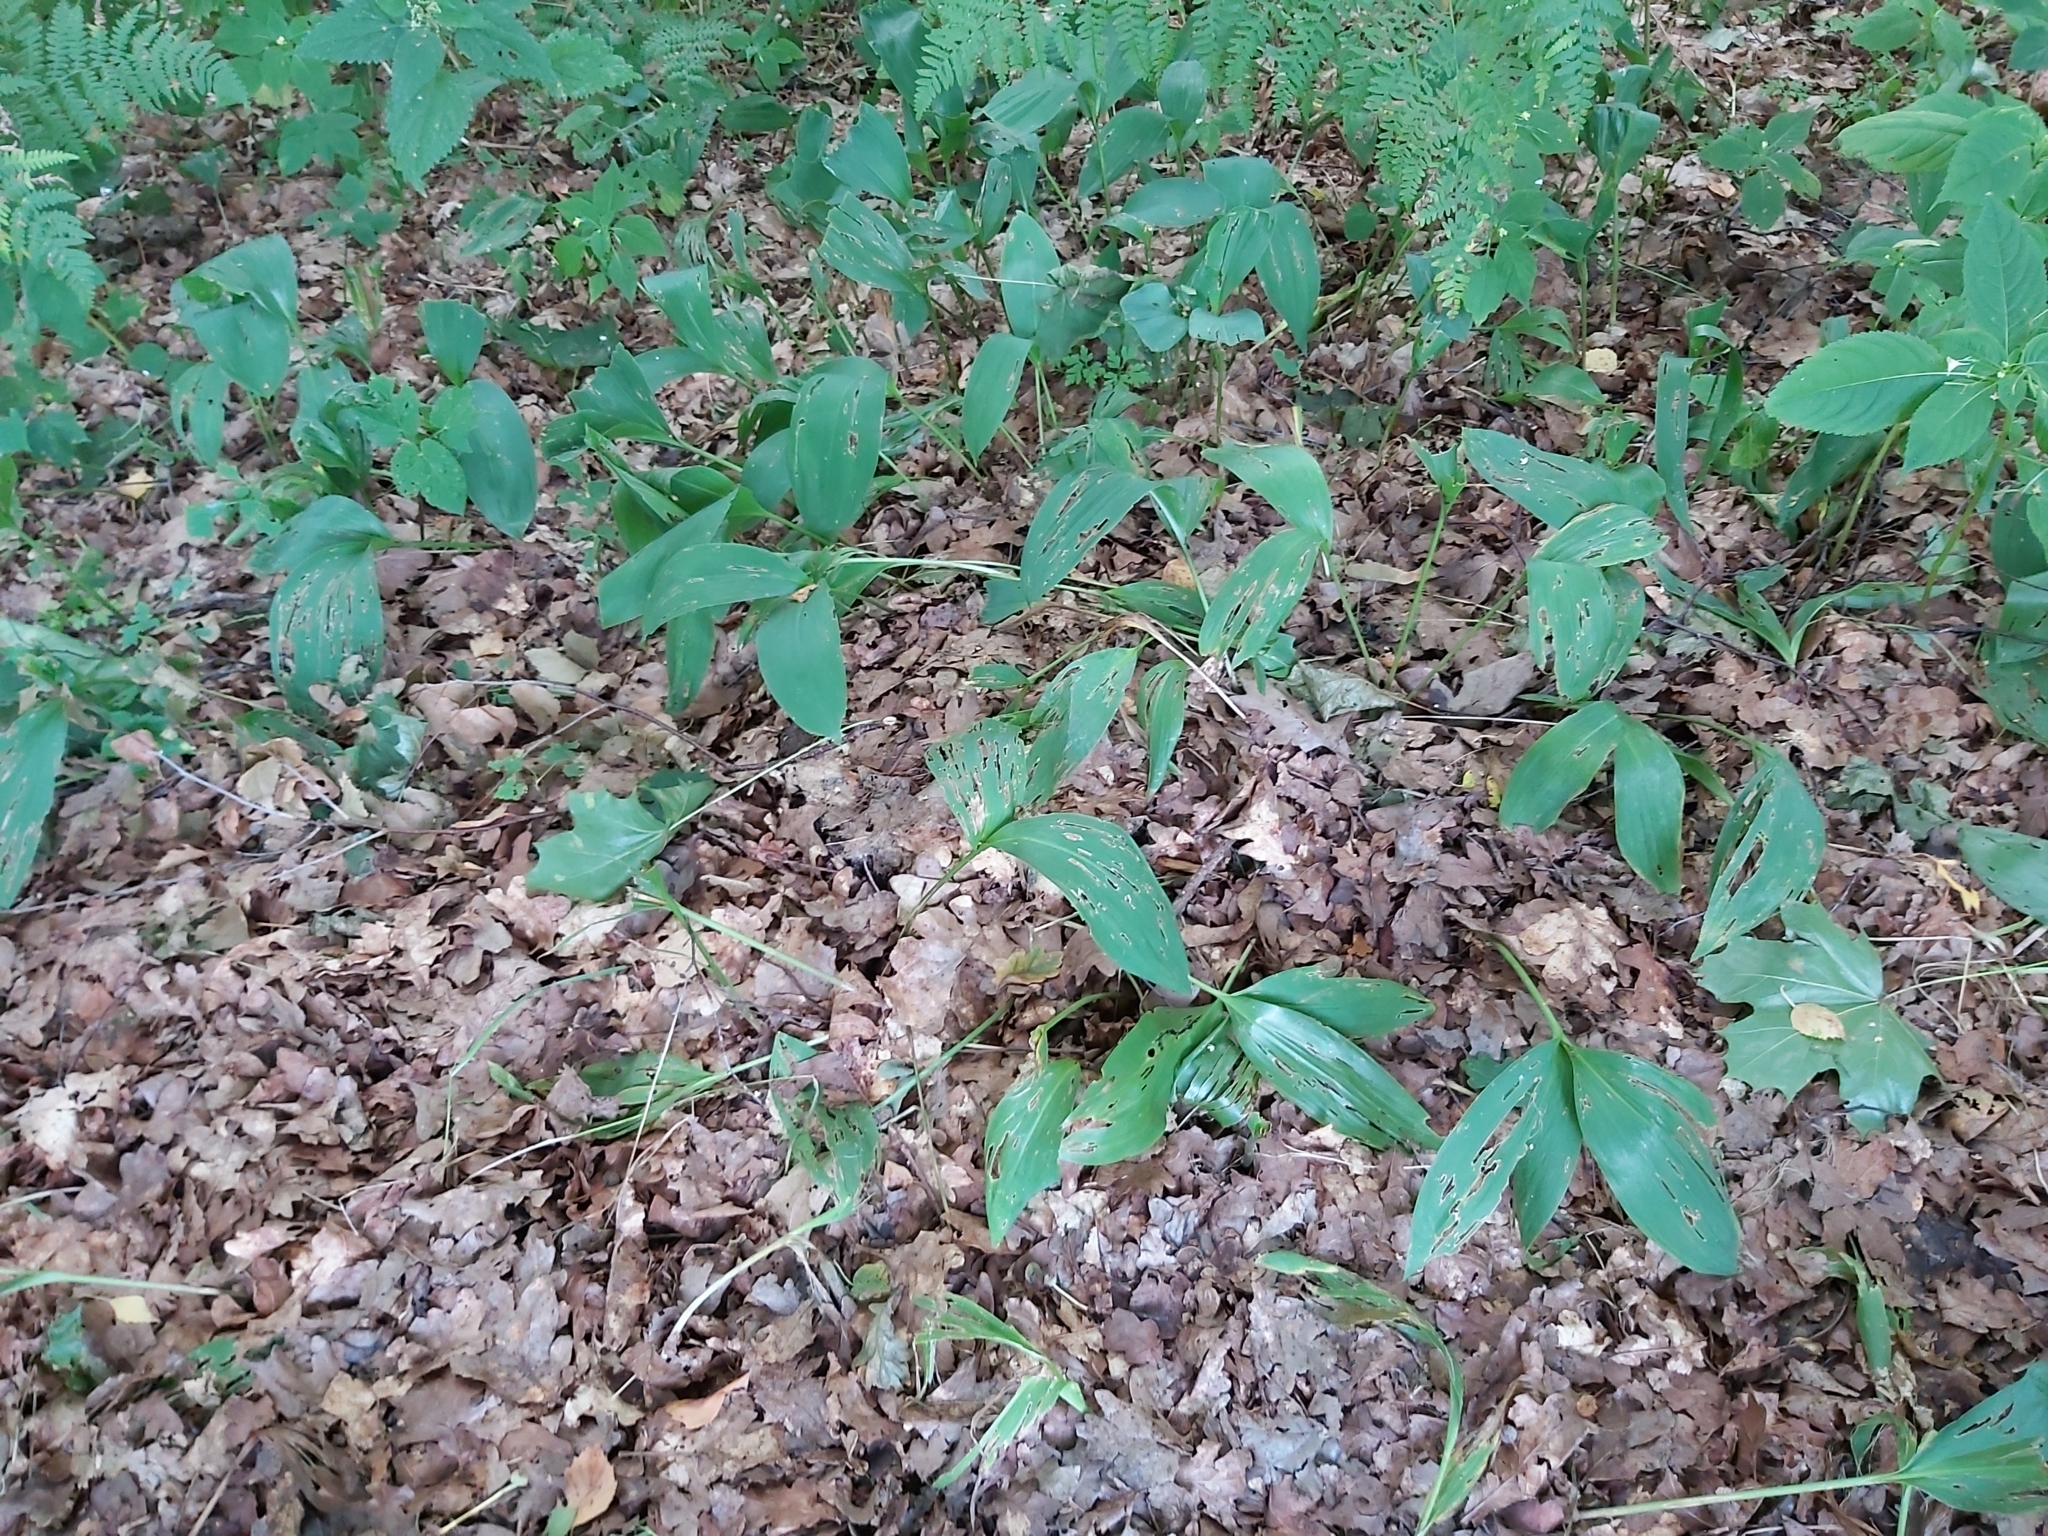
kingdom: Plantae
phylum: Tracheophyta
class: Liliopsida
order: Asparagales
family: Asparagaceae
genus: Convallaria
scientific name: Convallaria majalis
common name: Lily-of-the-valley
